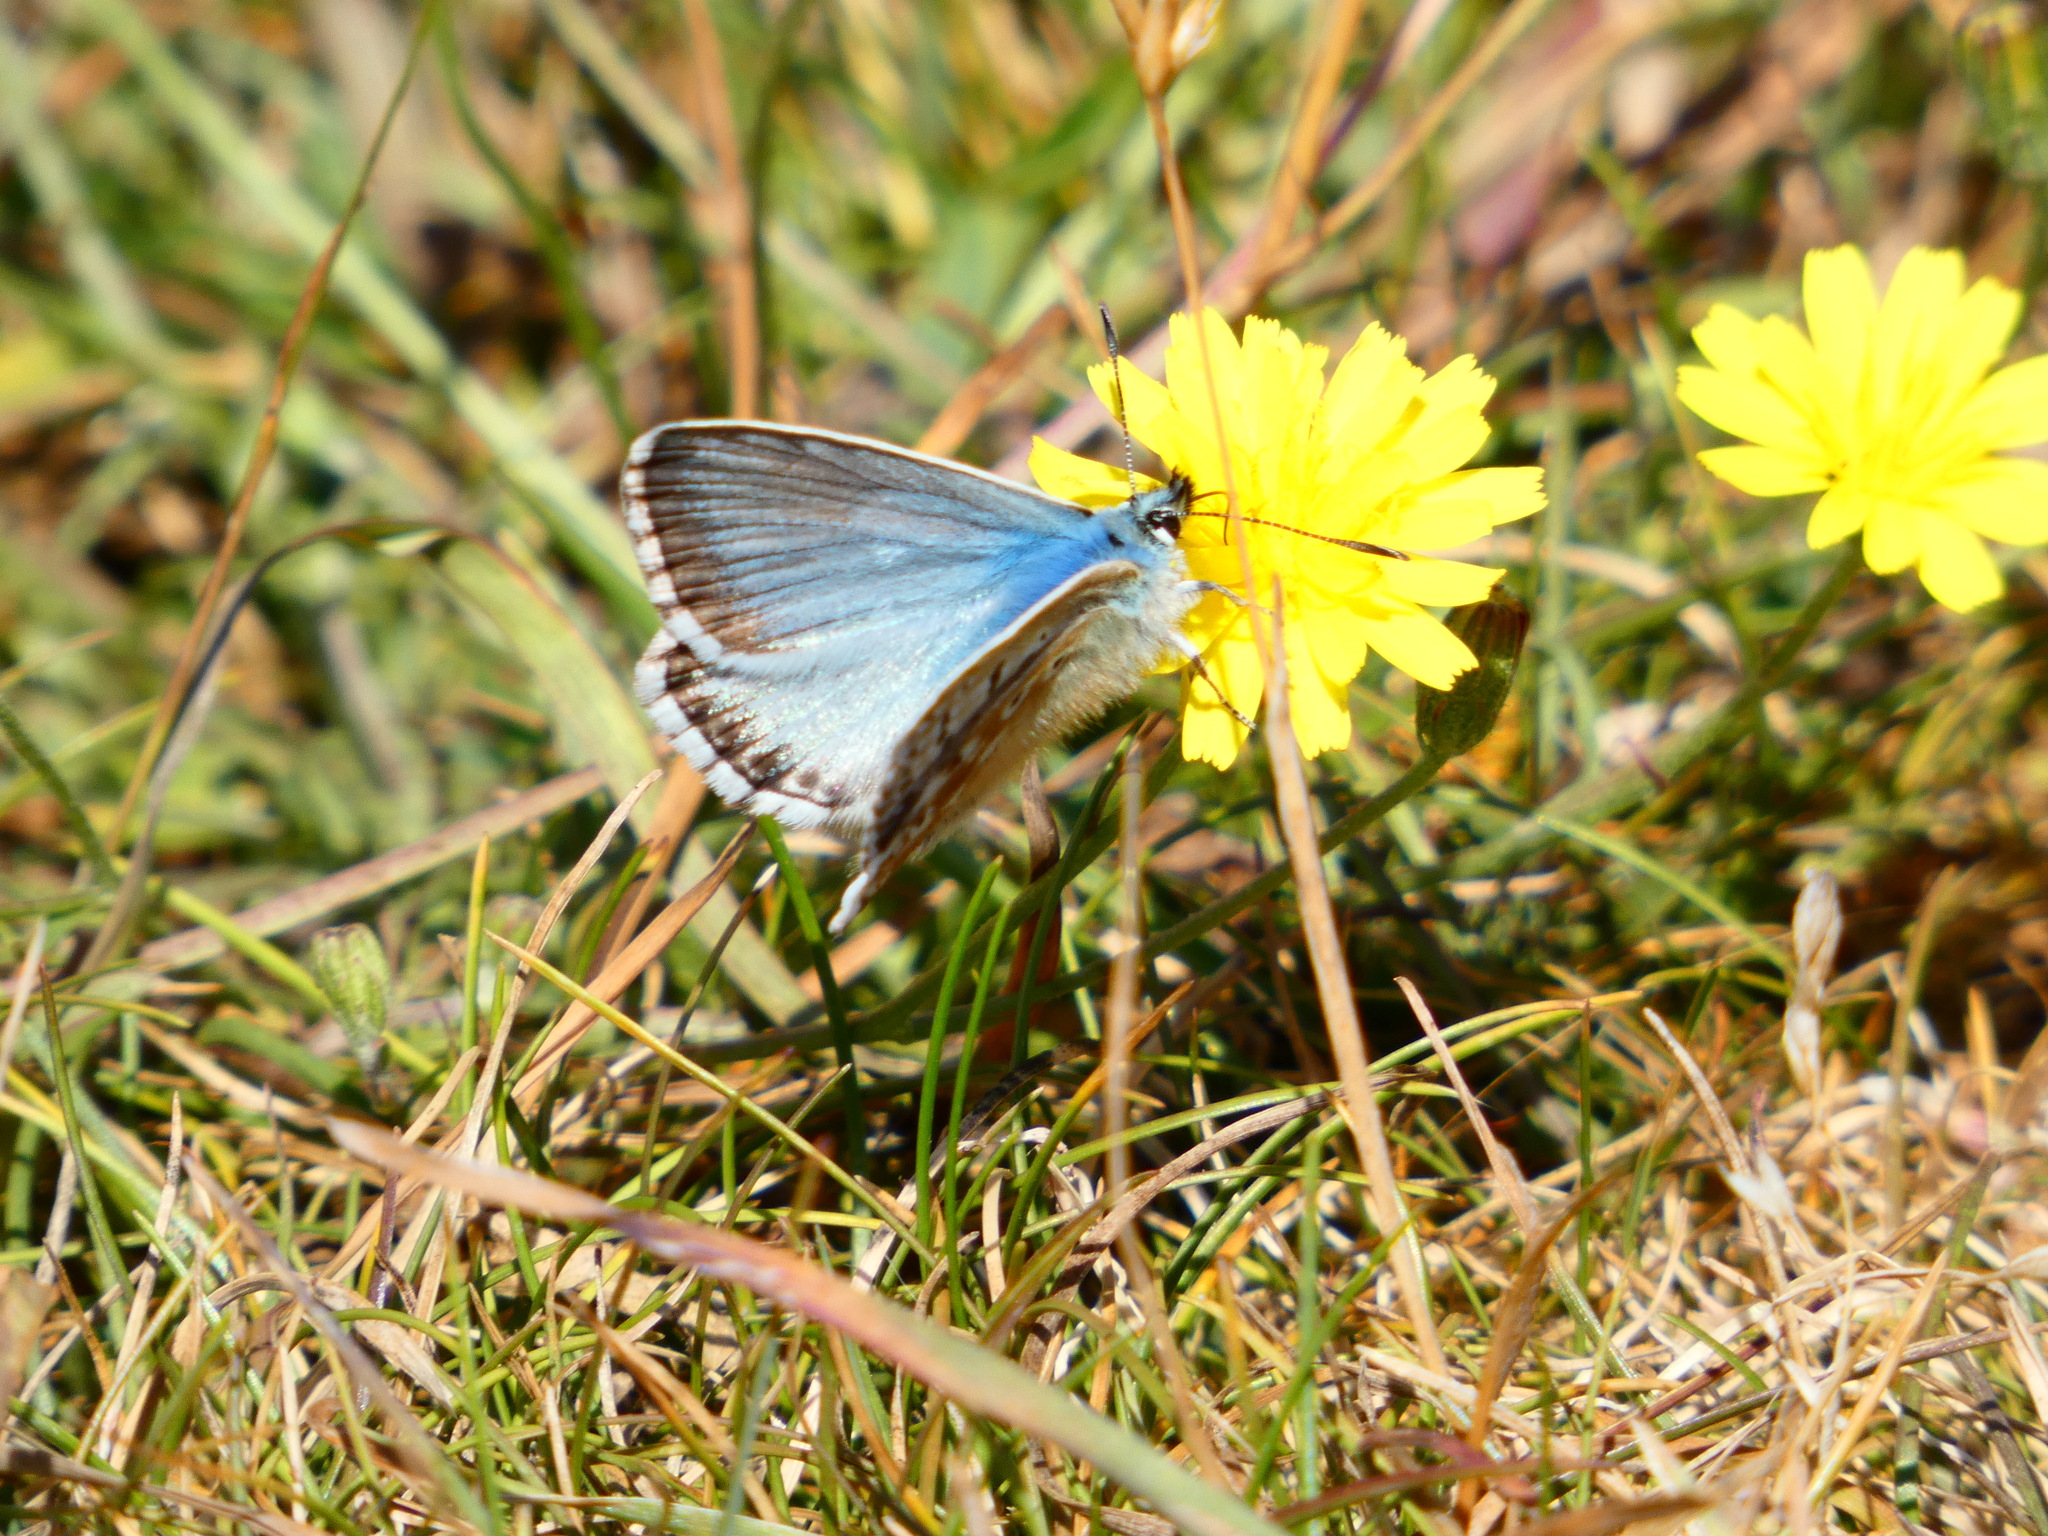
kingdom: Animalia
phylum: Arthropoda
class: Insecta
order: Lepidoptera
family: Lycaenidae
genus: Lysandra
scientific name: Lysandra coridon
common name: Chalkhill blue
